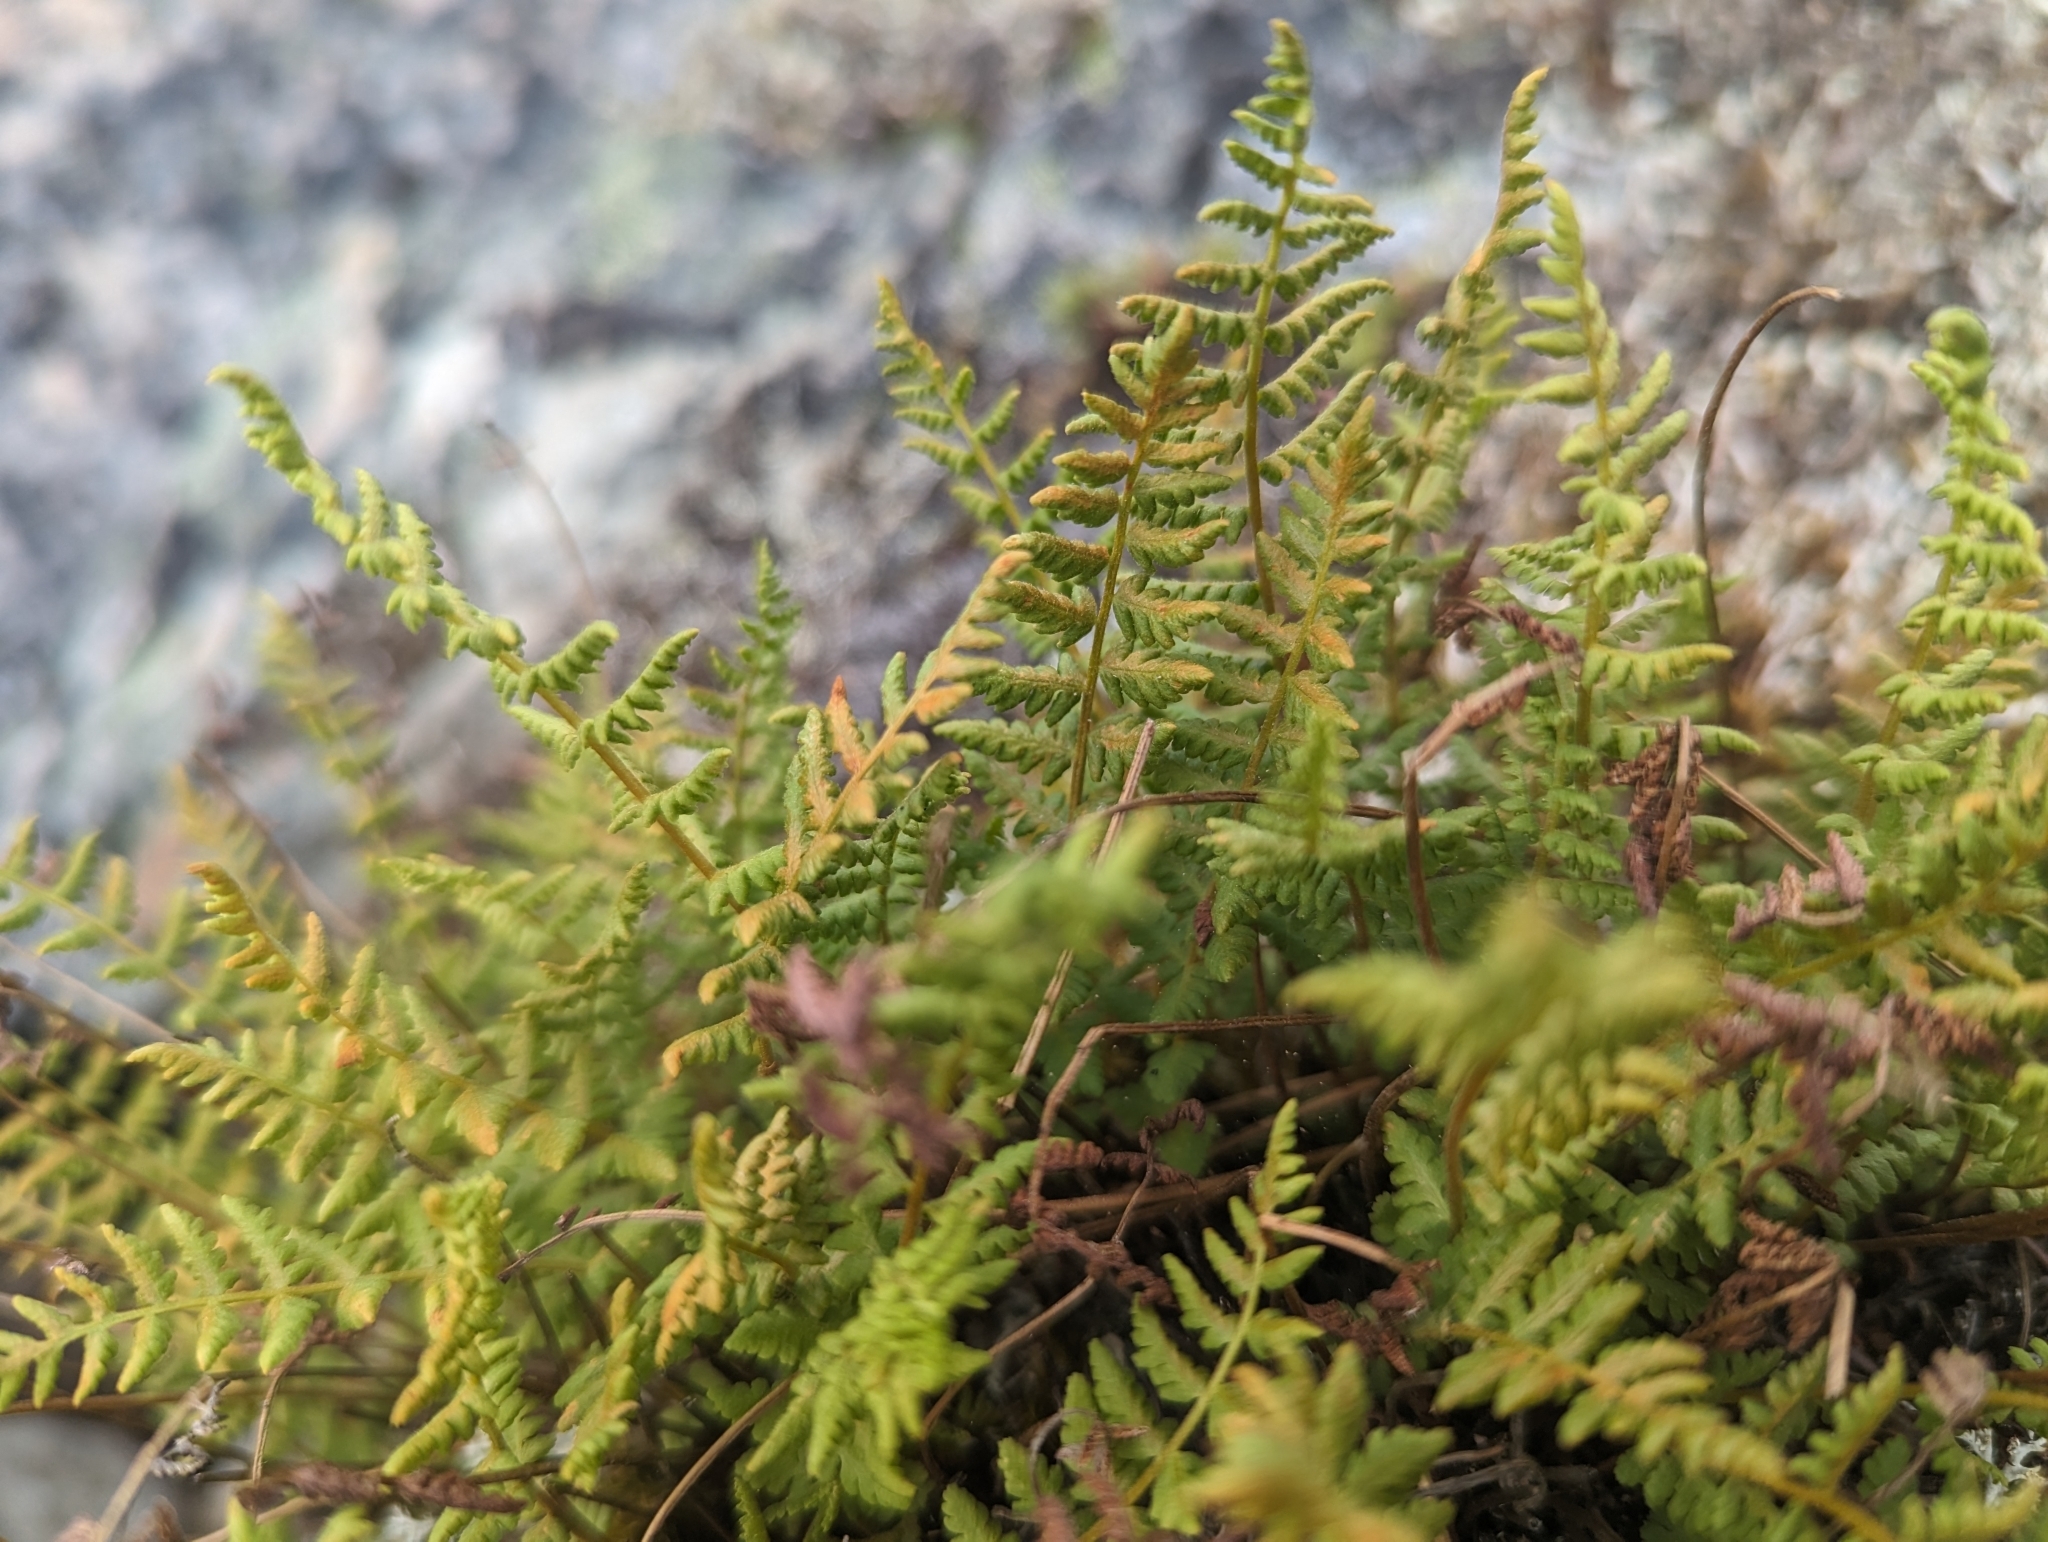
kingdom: Plantae
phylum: Tracheophyta
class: Polypodiopsida
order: Polypodiales
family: Woodsiaceae
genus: Physematium
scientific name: Physematium scopulinum
